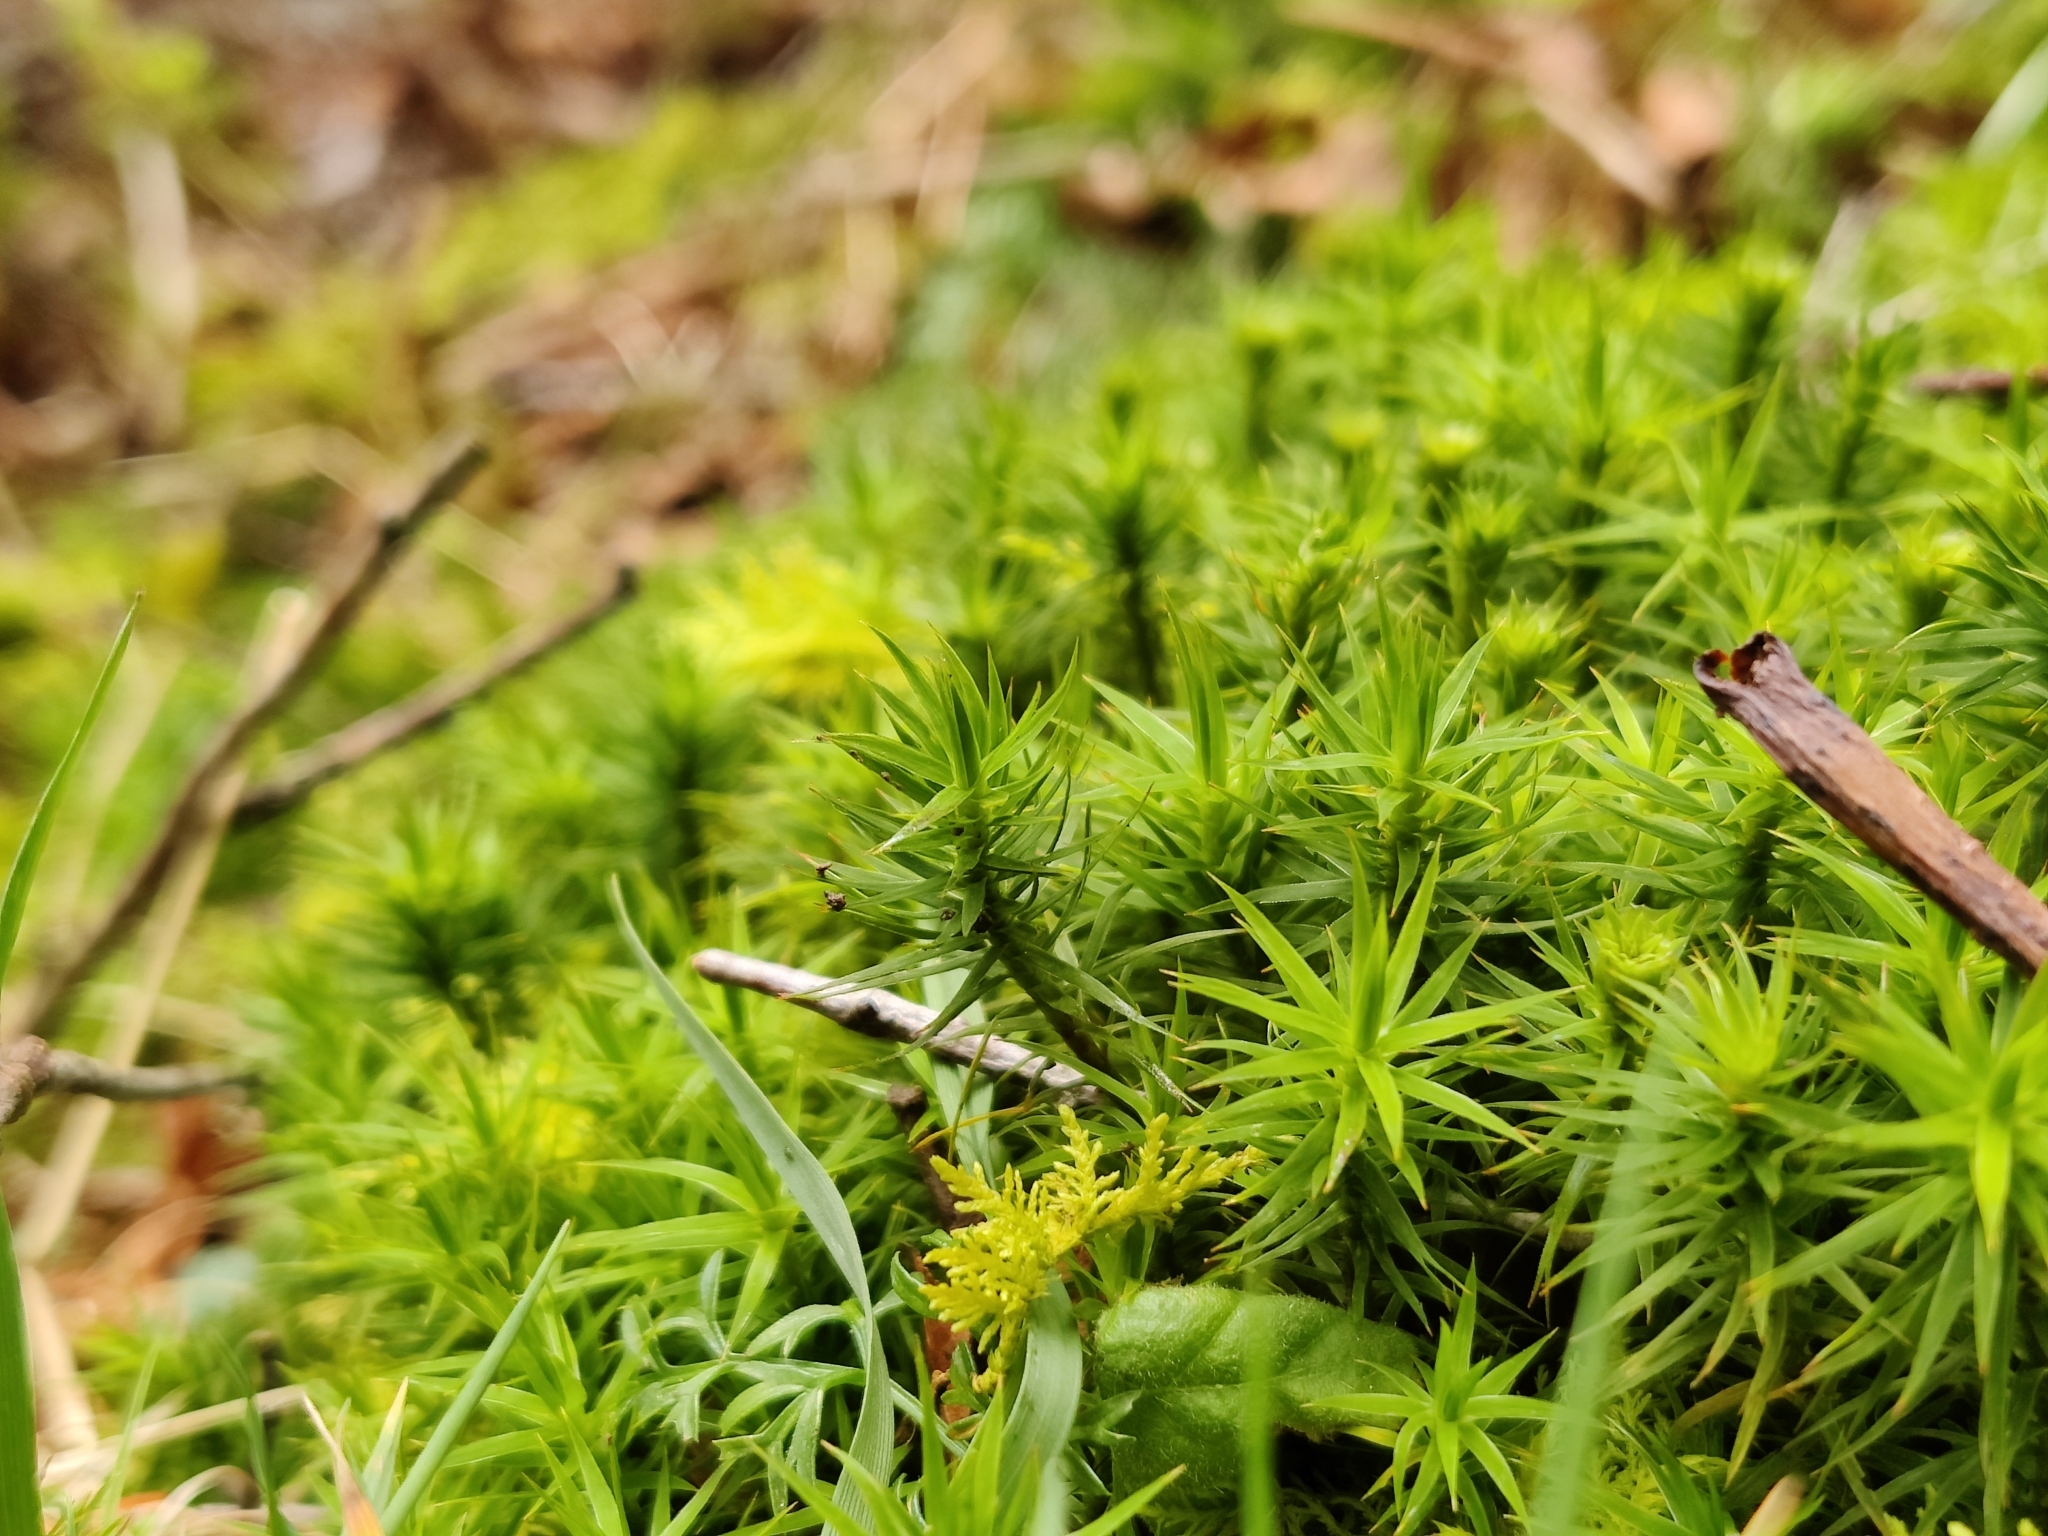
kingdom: Plantae
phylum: Bryophyta
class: Polytrichopsida
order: Polytrichales
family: Polytrichaceae
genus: Polytrichum
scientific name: Polytrichum formosum
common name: Bank haircap moss
